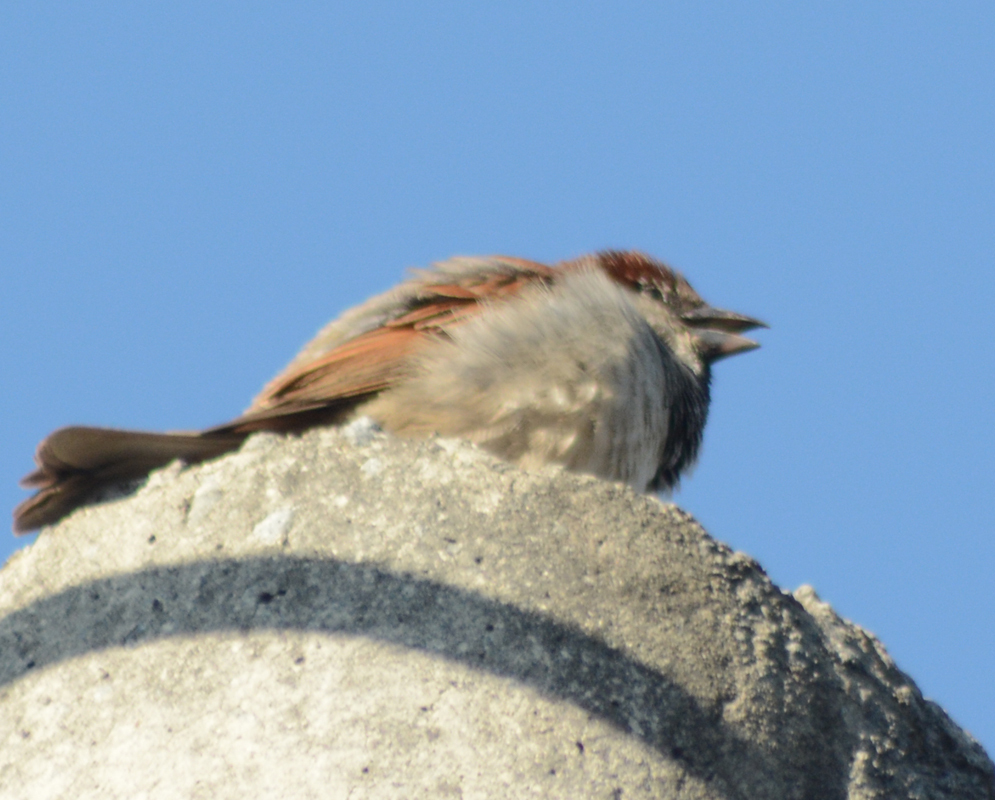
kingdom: Animalia
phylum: Chordata
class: Aves
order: Passeriformes
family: Passeridae
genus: Passer
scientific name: Passer domesticus
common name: House sparrow
